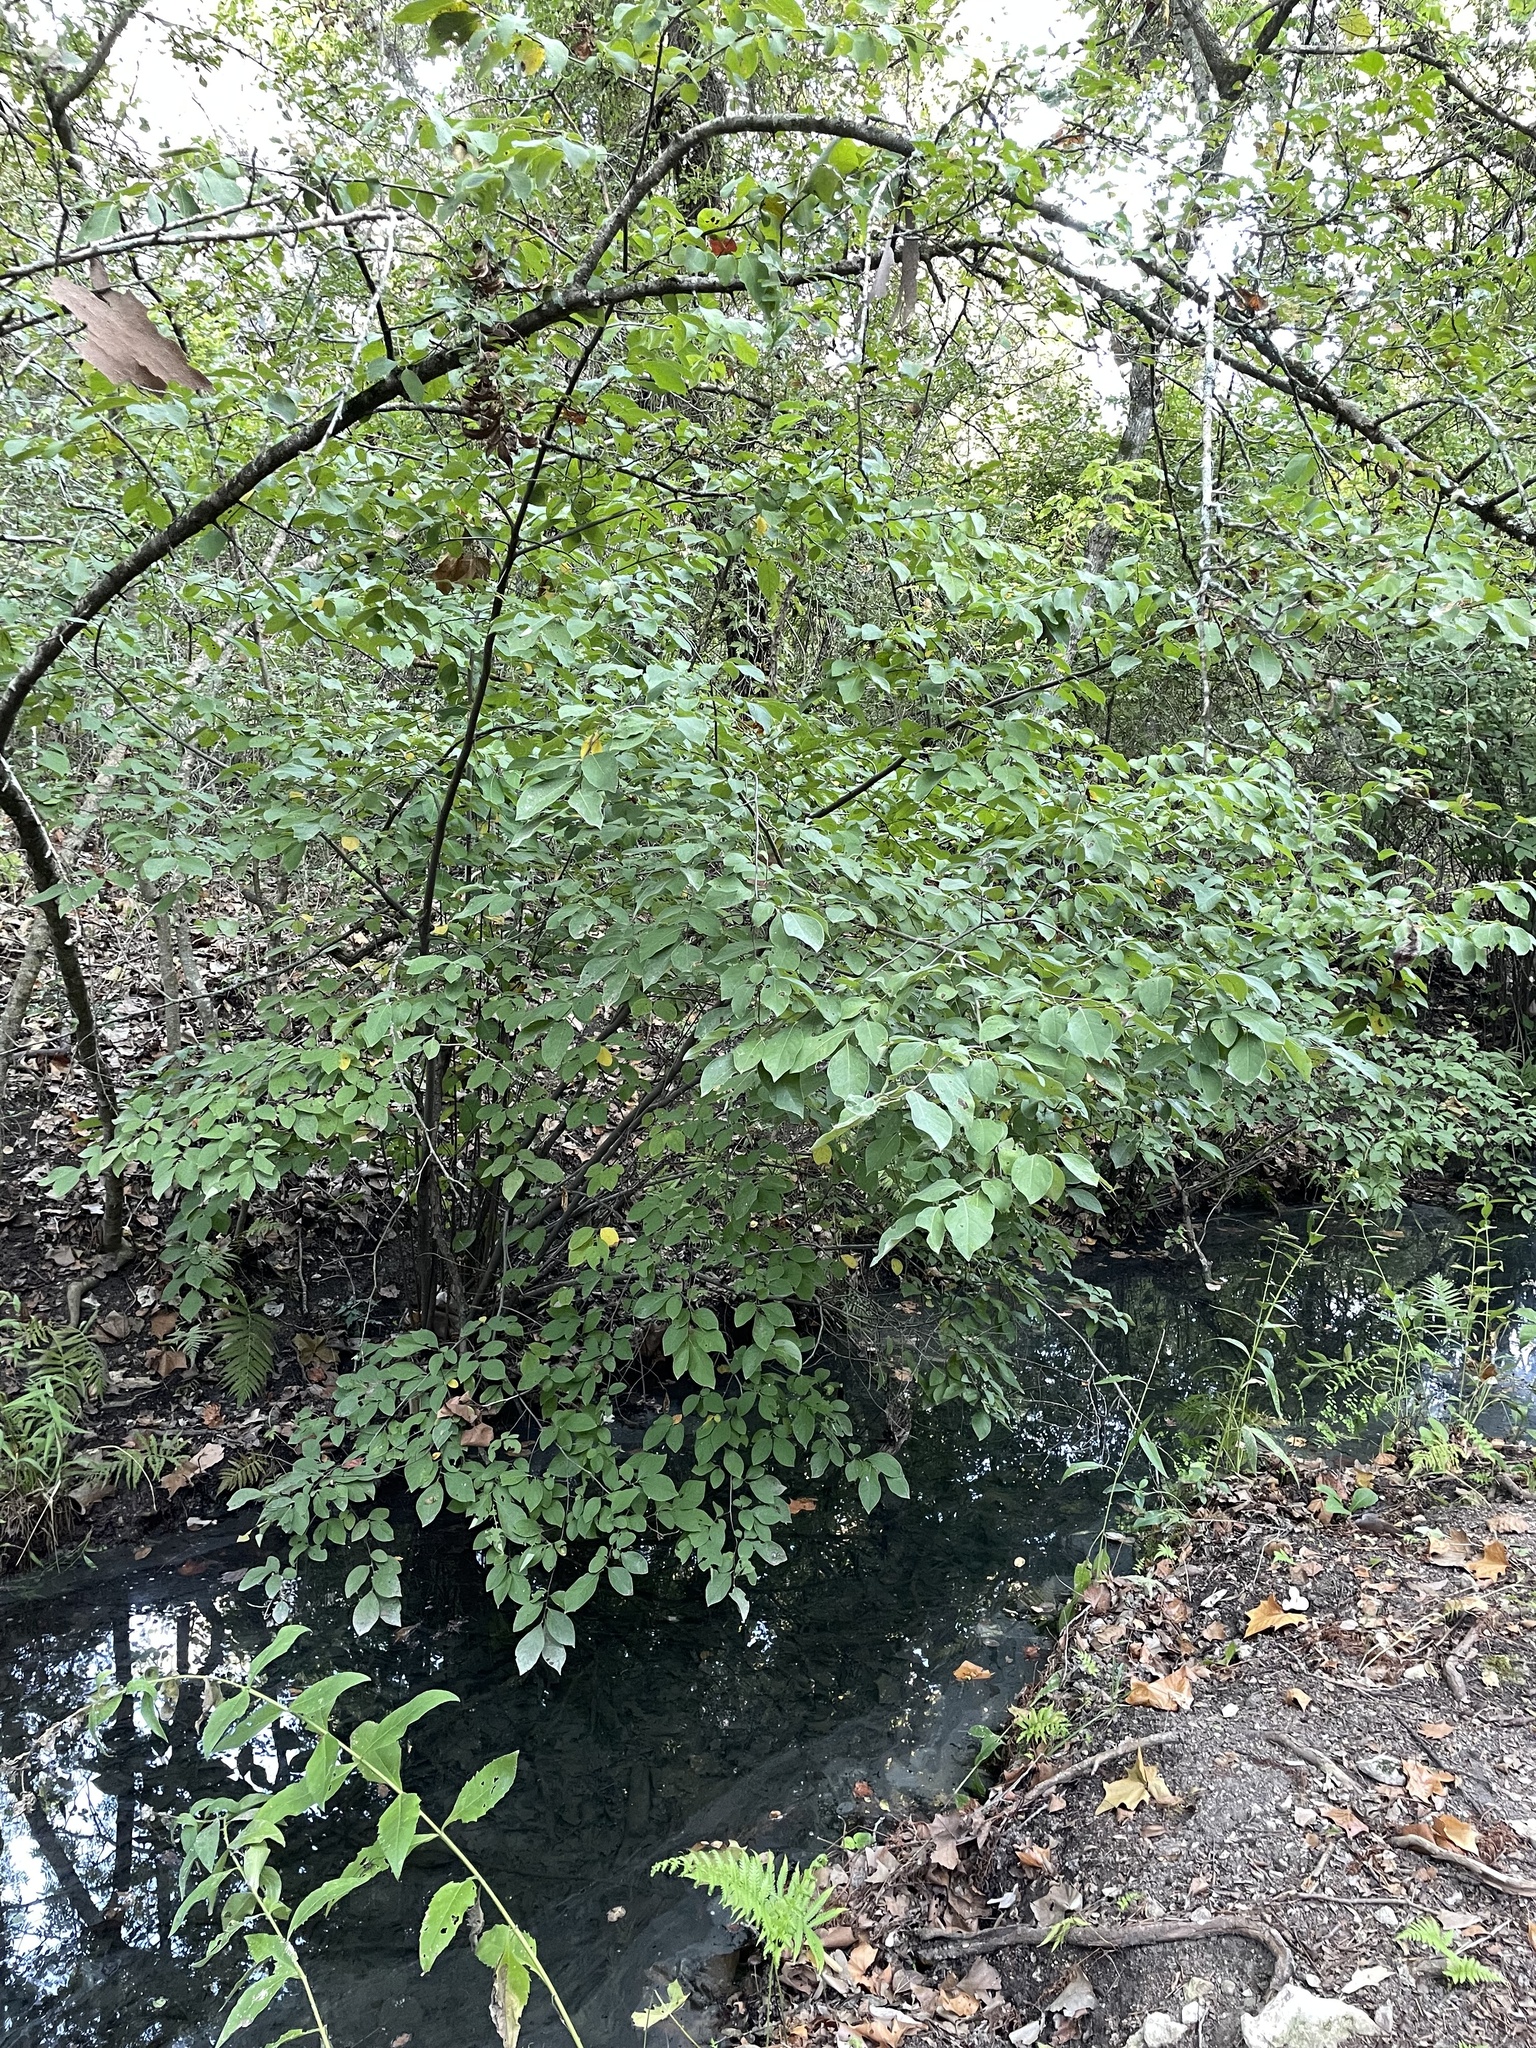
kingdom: Plantae
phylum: Tracheophyta
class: Magnoliopsida
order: Laurales
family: Lauraceae
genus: Lindera
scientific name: Lindera benzoin
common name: Spicebush
